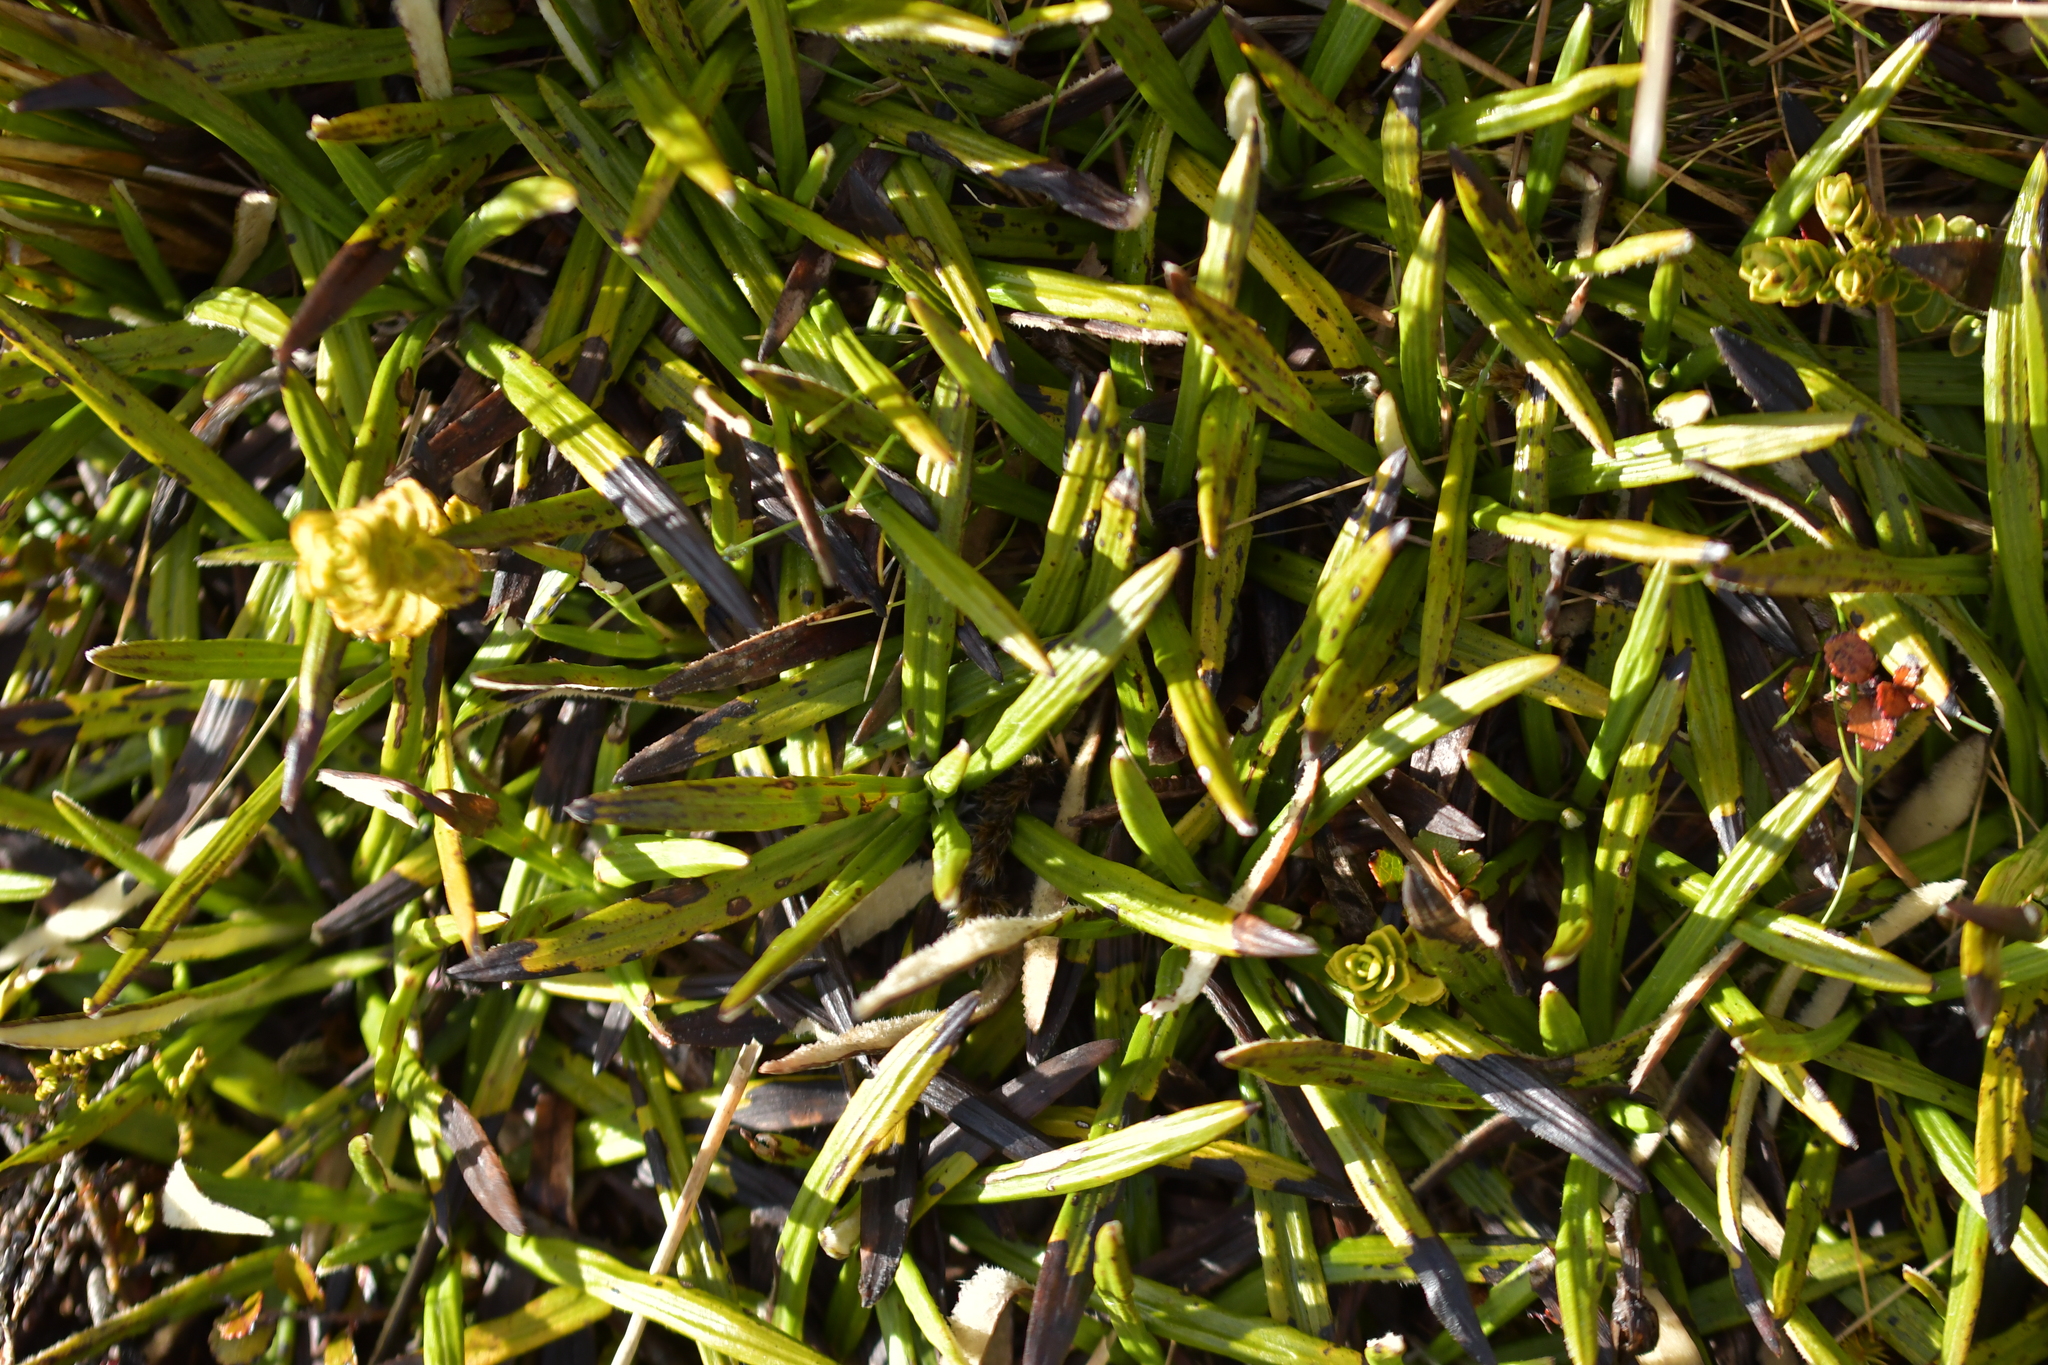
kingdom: Plantae
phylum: Tracheophyta
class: Magnoliopsida
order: Asterales
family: Asteraceae
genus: Celmisia
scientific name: Celmisia spectabilis
